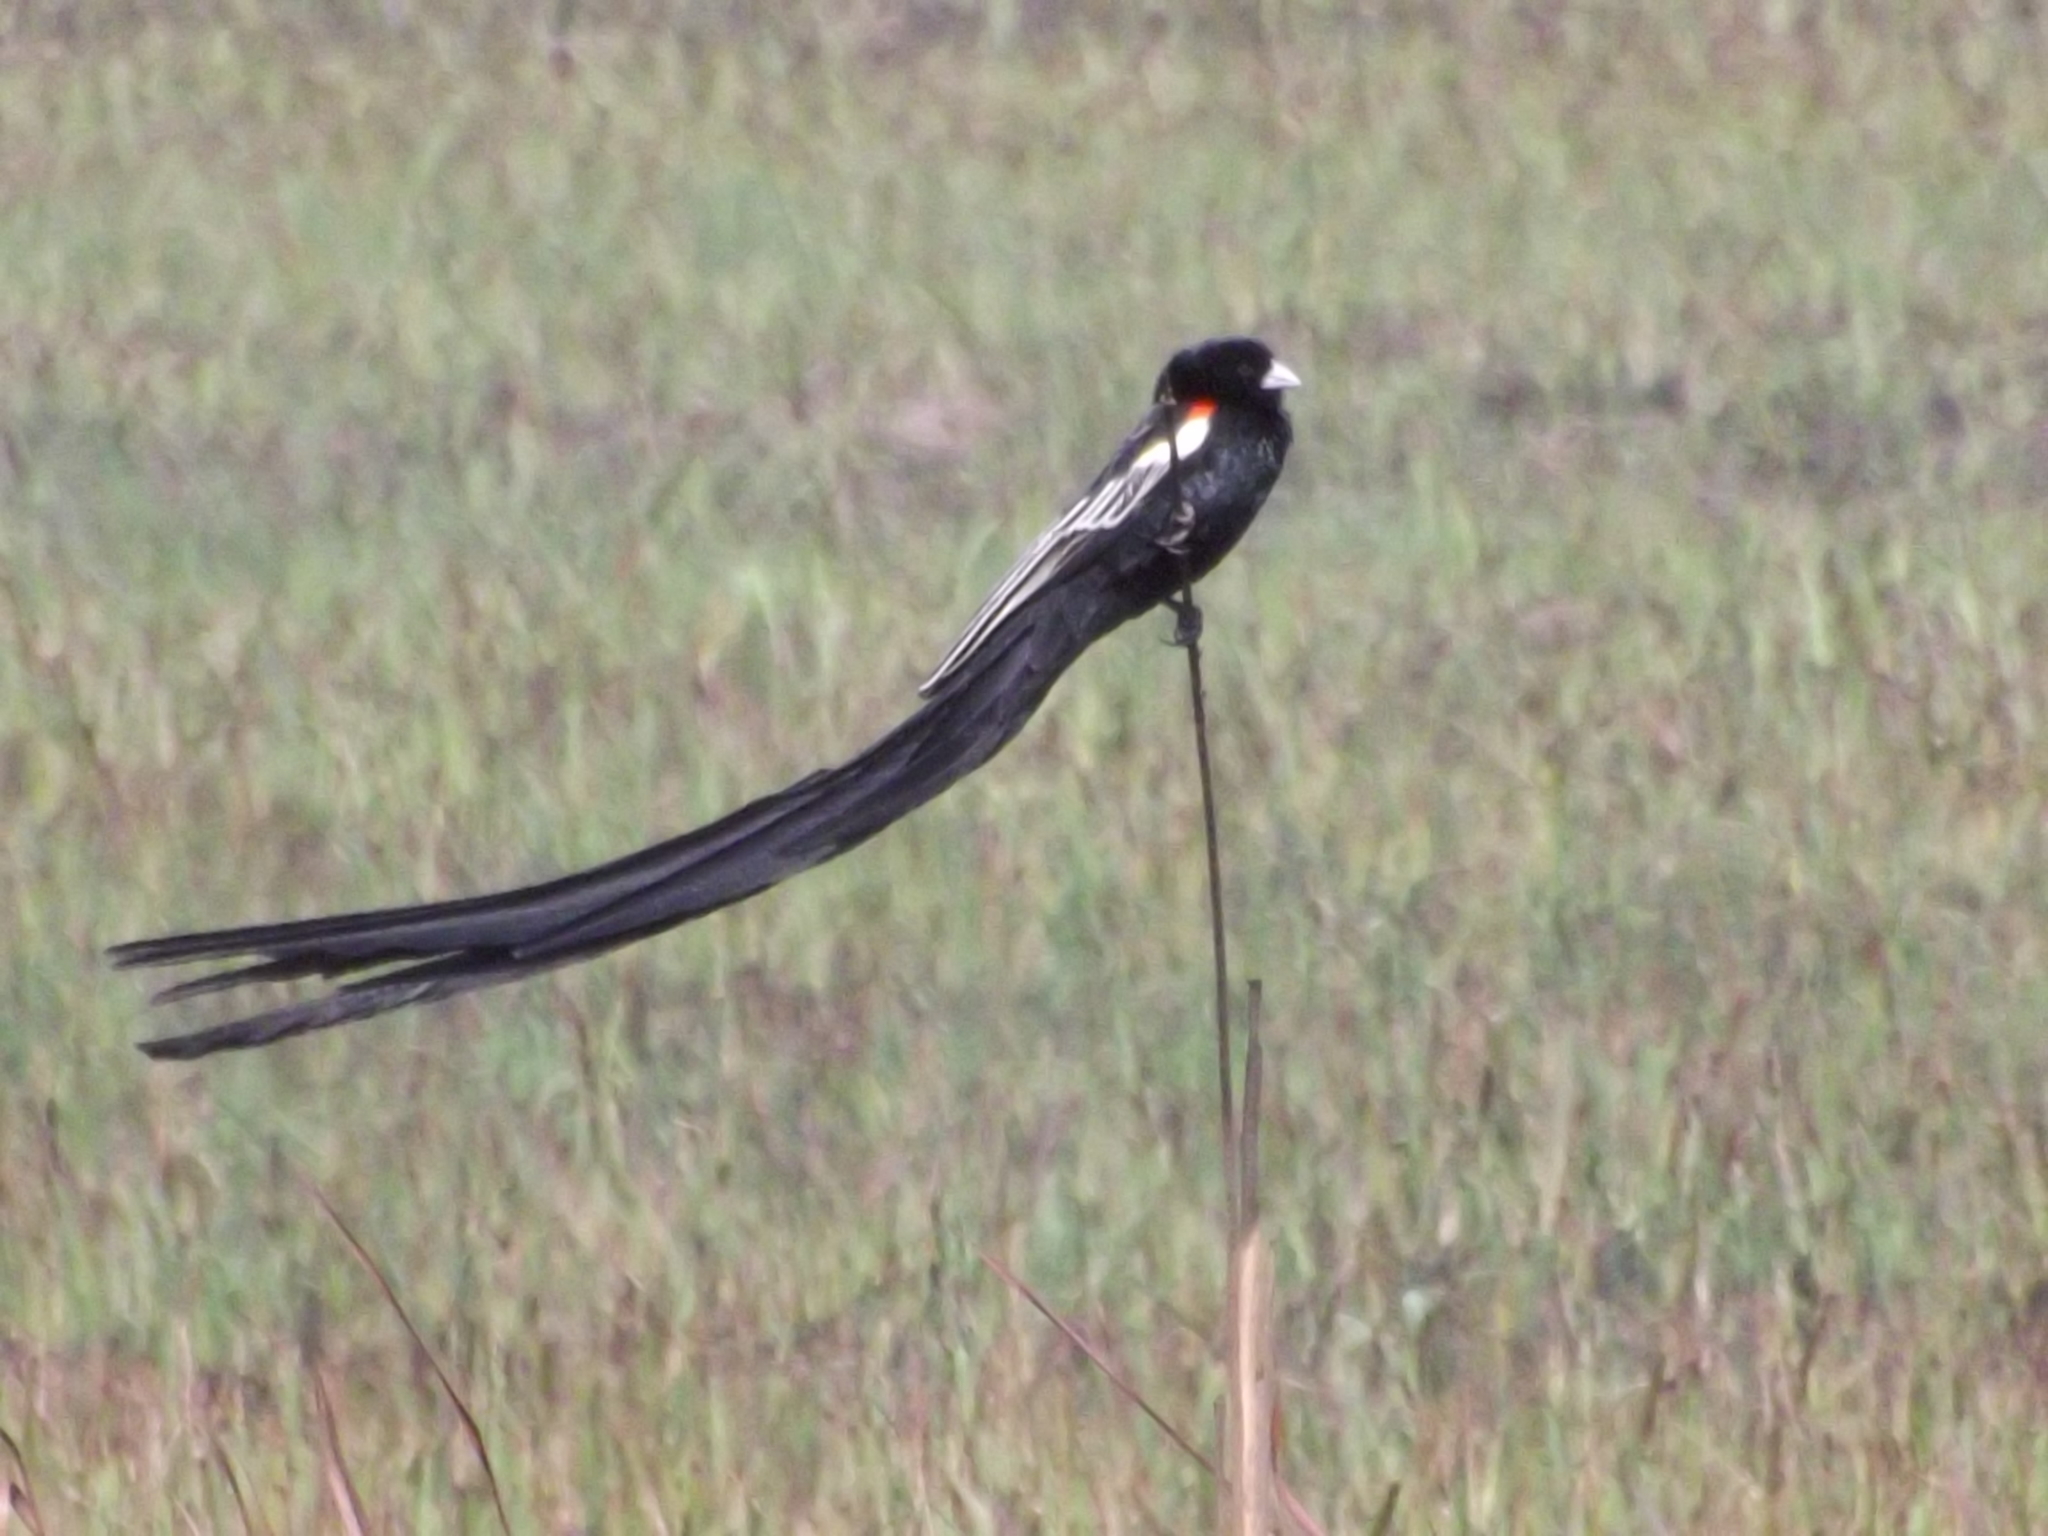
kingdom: Animalia
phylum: Chordata
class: Aves
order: Passeriformes
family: Ploceidae
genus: Euplectes
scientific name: Euplectes progne
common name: Long-tailed widowbird
